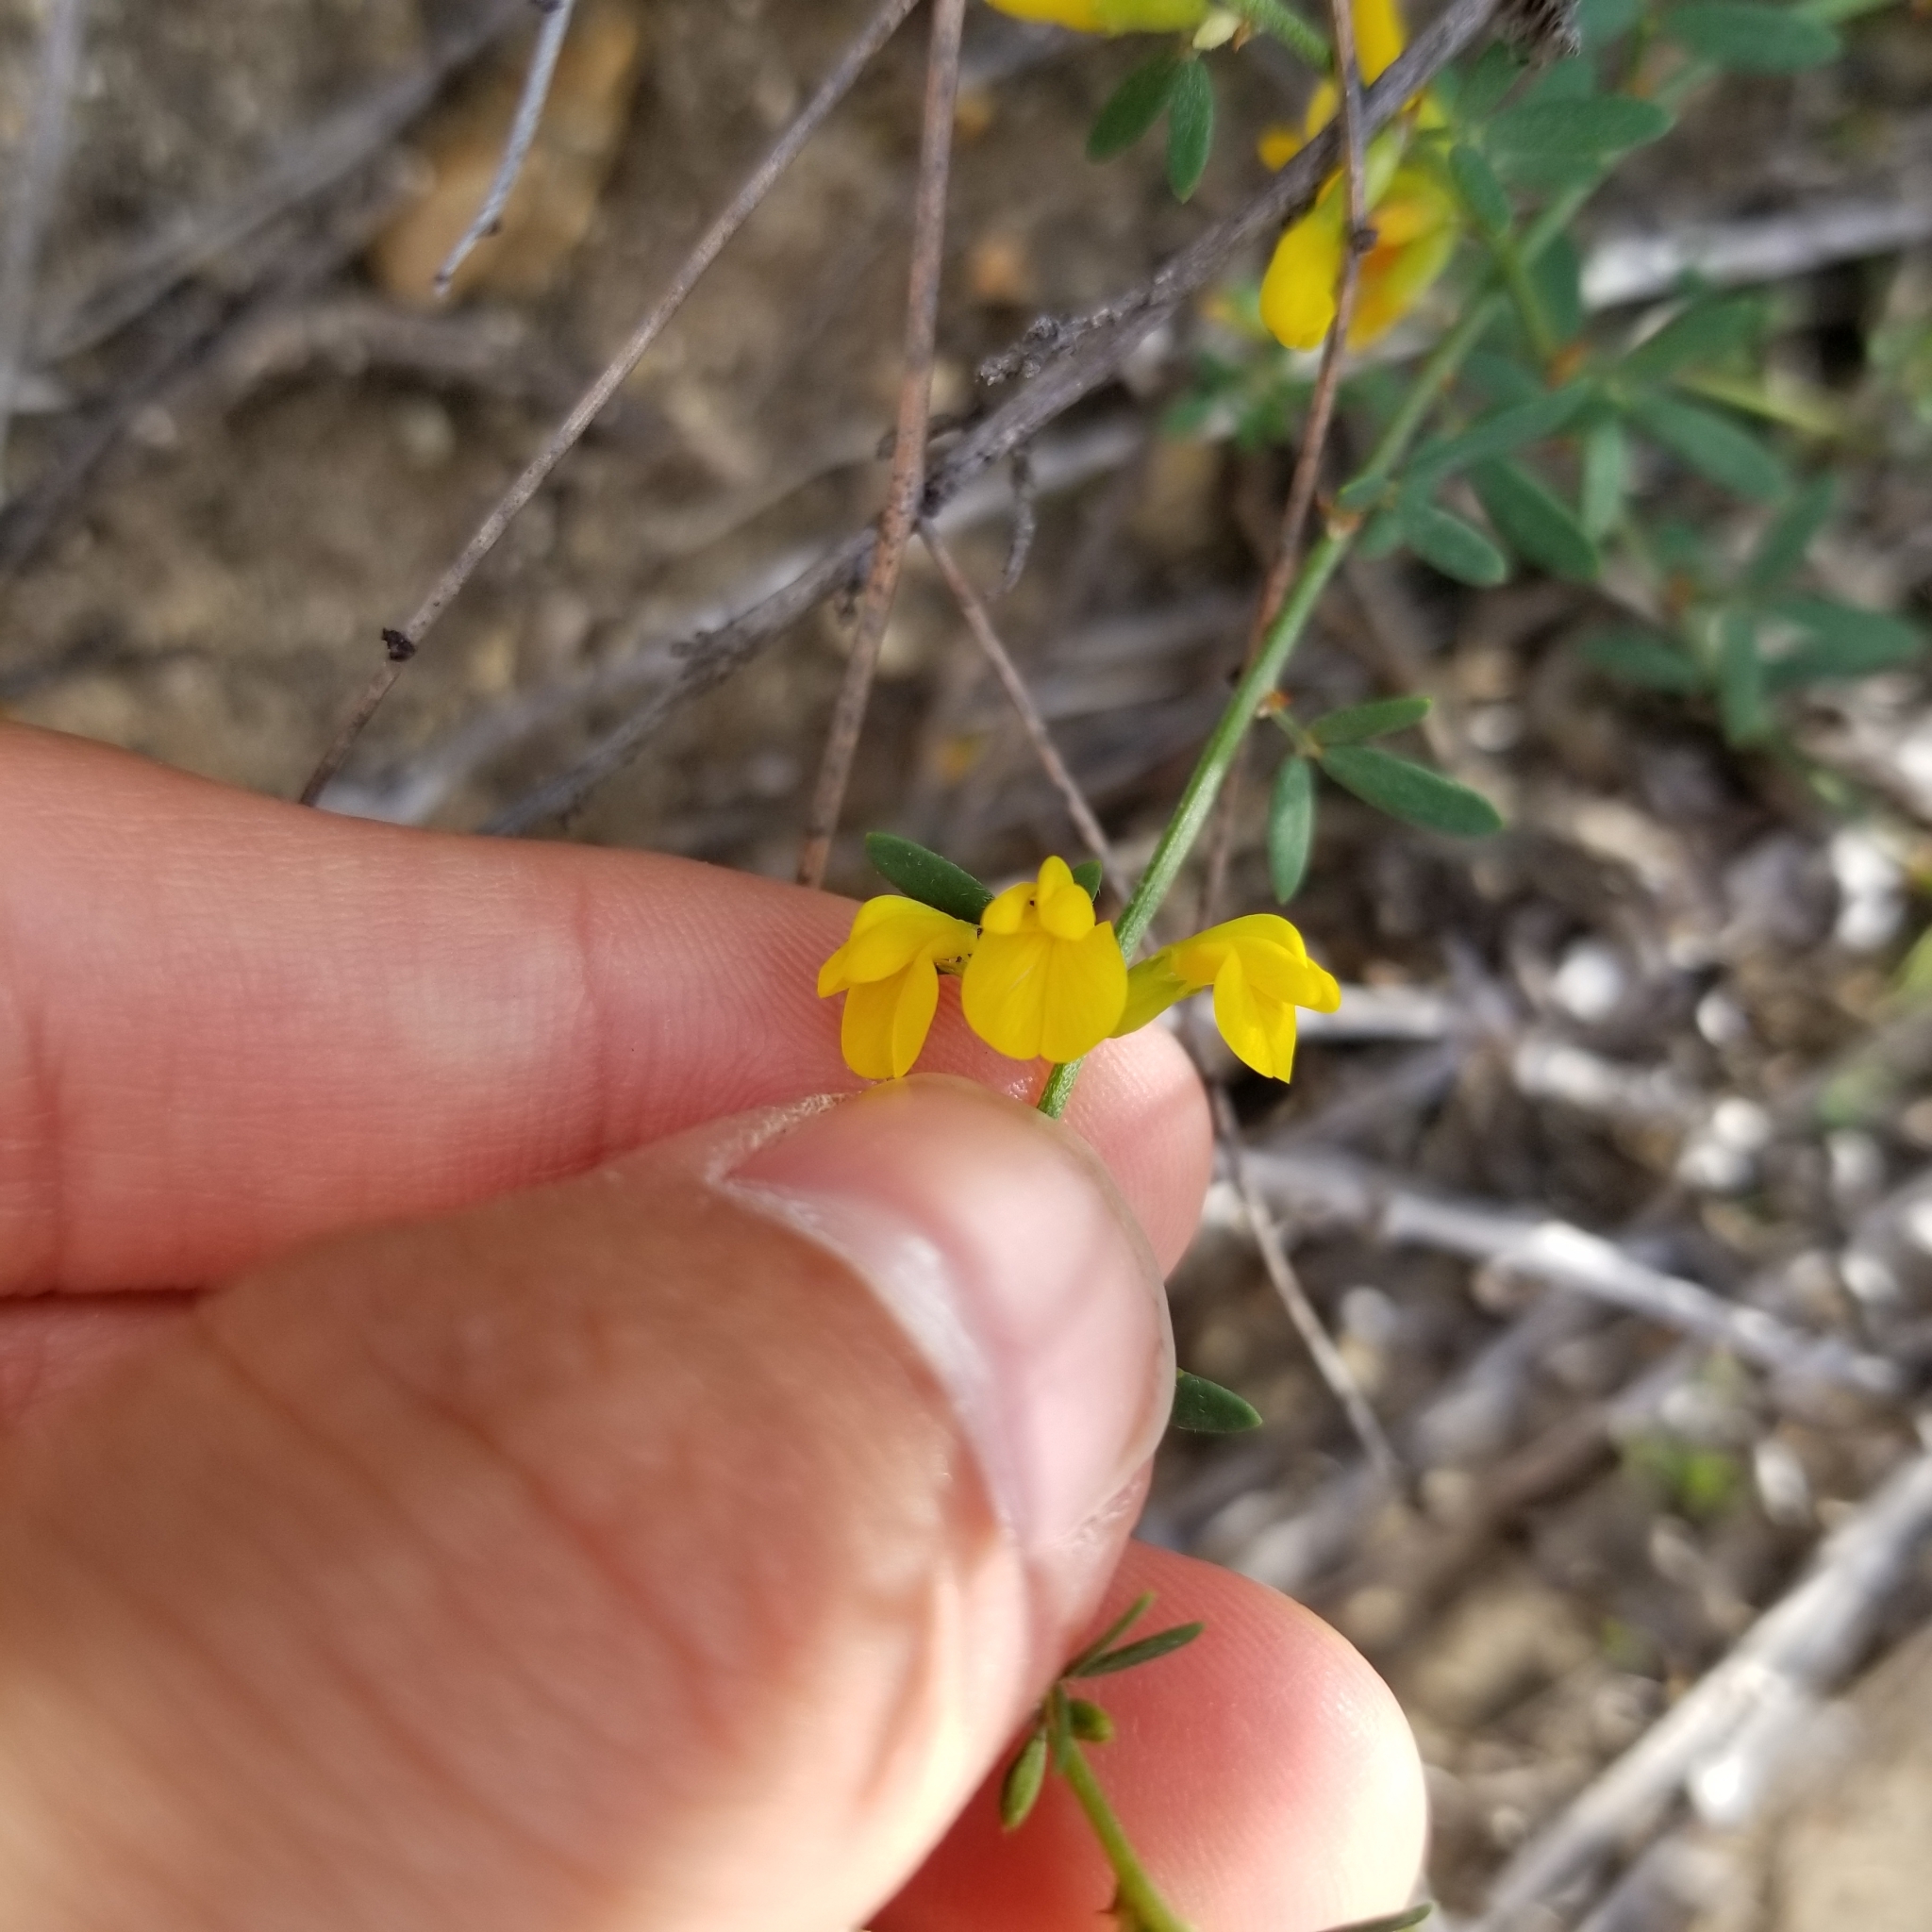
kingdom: Plantae
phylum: Tracheophyta
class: Magnoliopsida
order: Fabales
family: Fabaceae
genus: Acmispon
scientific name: Acmispon glaber
